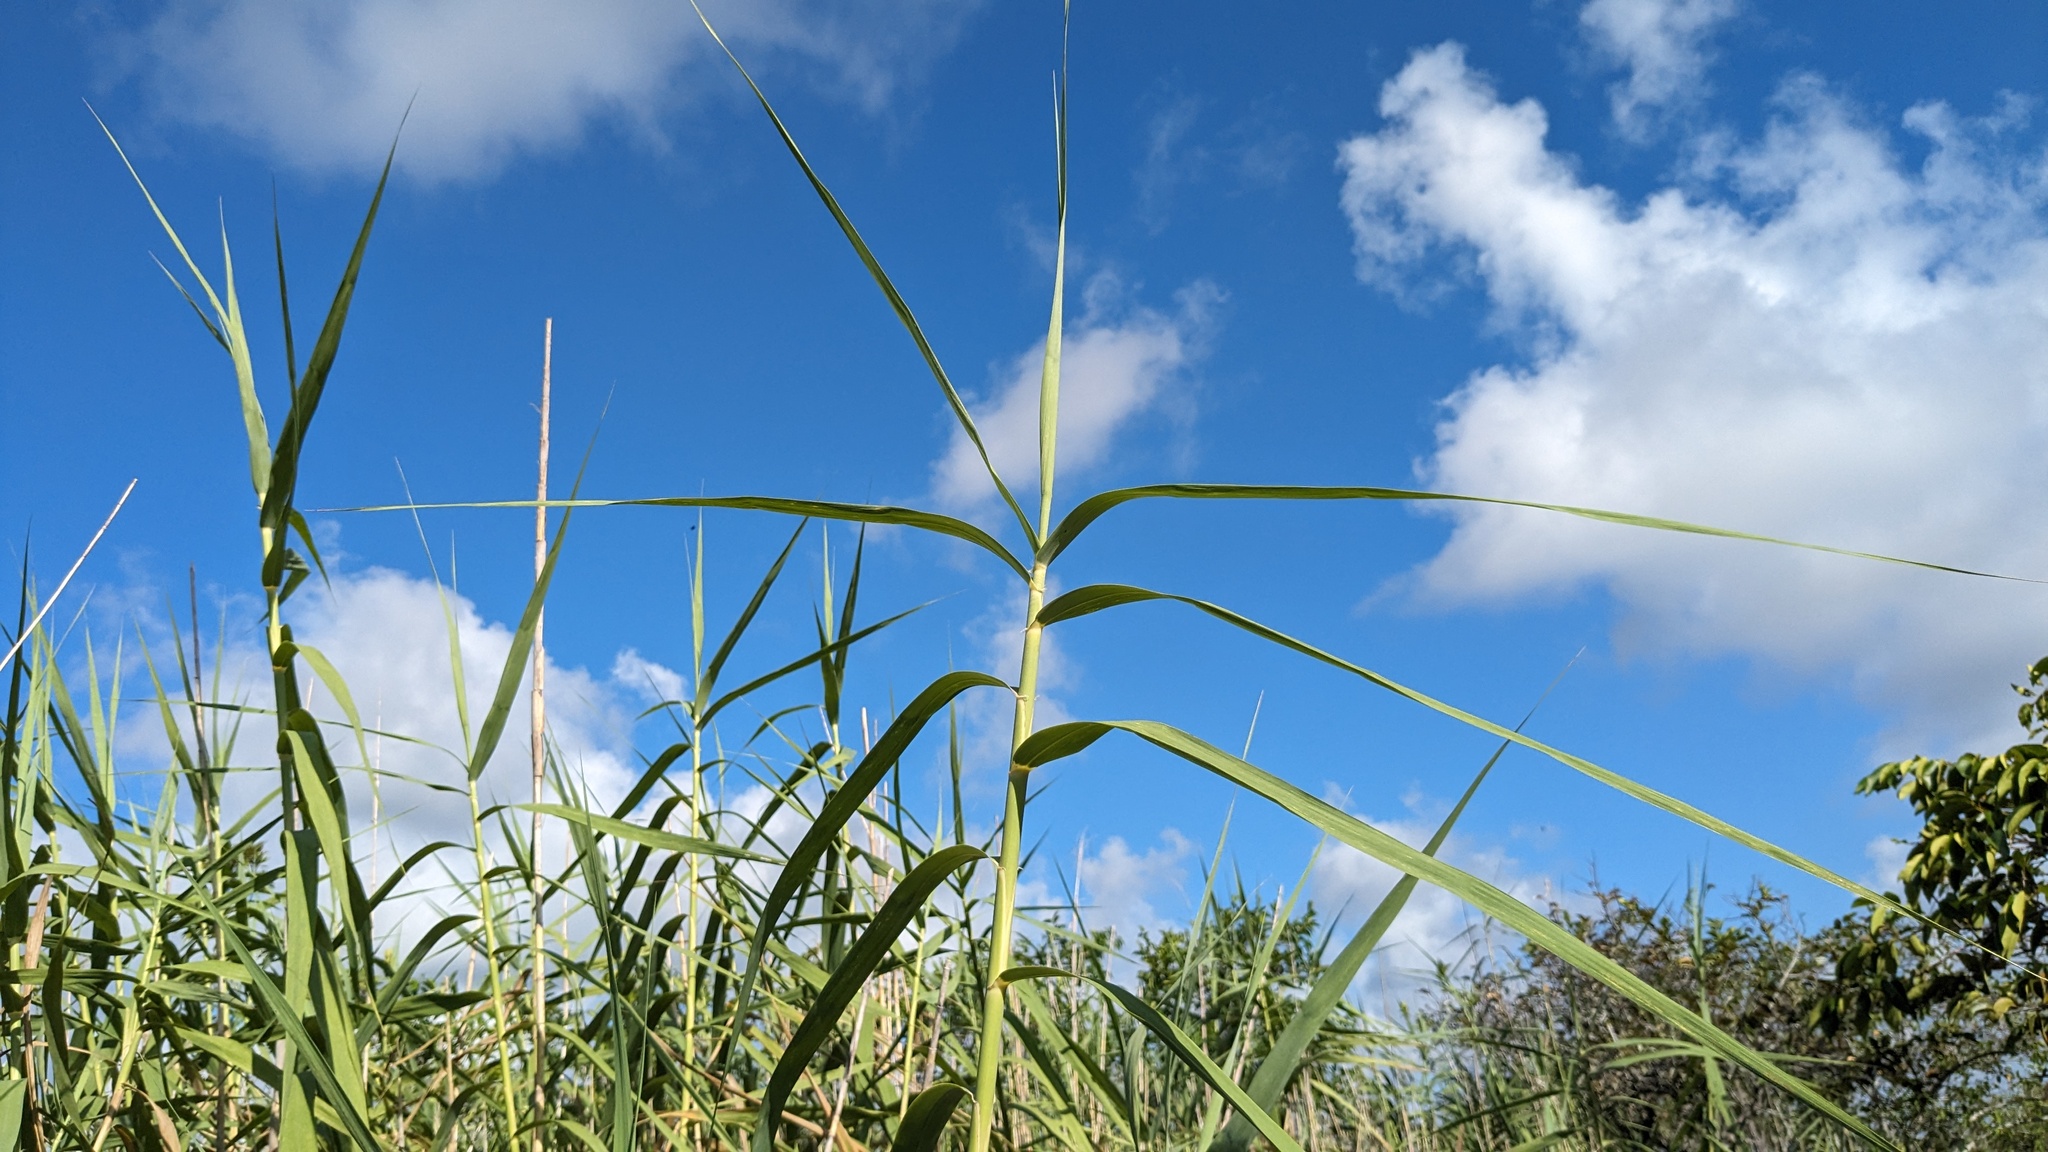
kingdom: Plantae
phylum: Tracheophyta
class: Liliopsida
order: Poales
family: Poaceae
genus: Phragmites
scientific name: Phragmites australis
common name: Common reed
